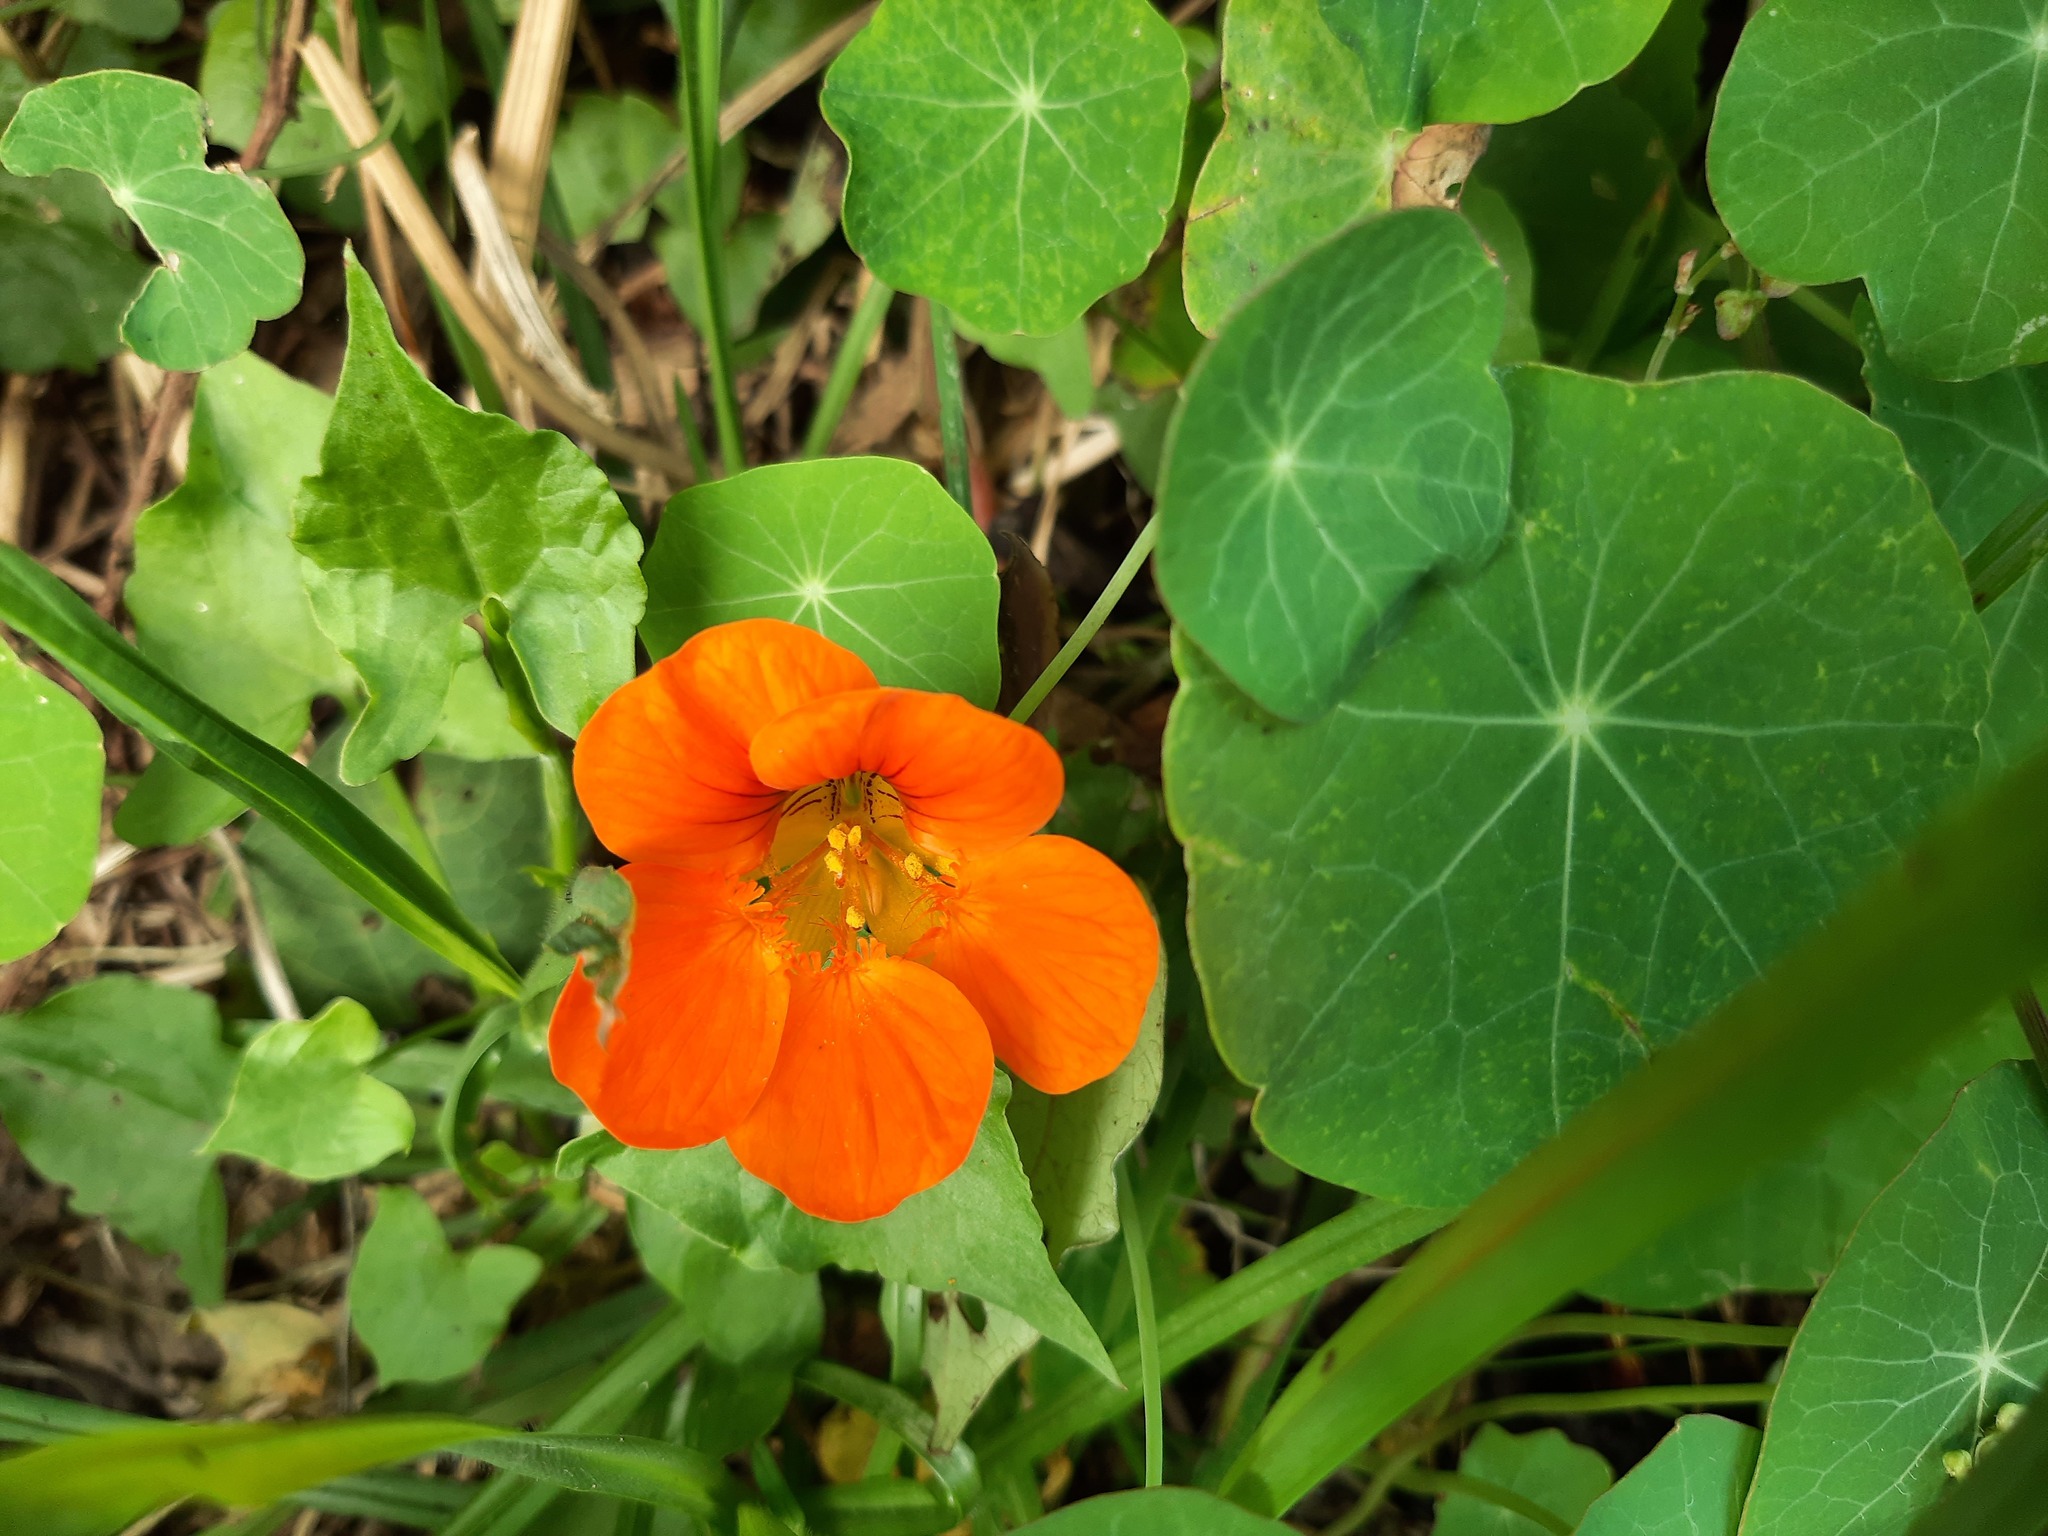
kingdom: Plantae
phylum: Tracheophyta
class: Magnoliopsida
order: Brassicales
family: Tropaeolaceae
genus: Tropaeolum
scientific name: Tropaeolum majus
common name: Nasturtium
